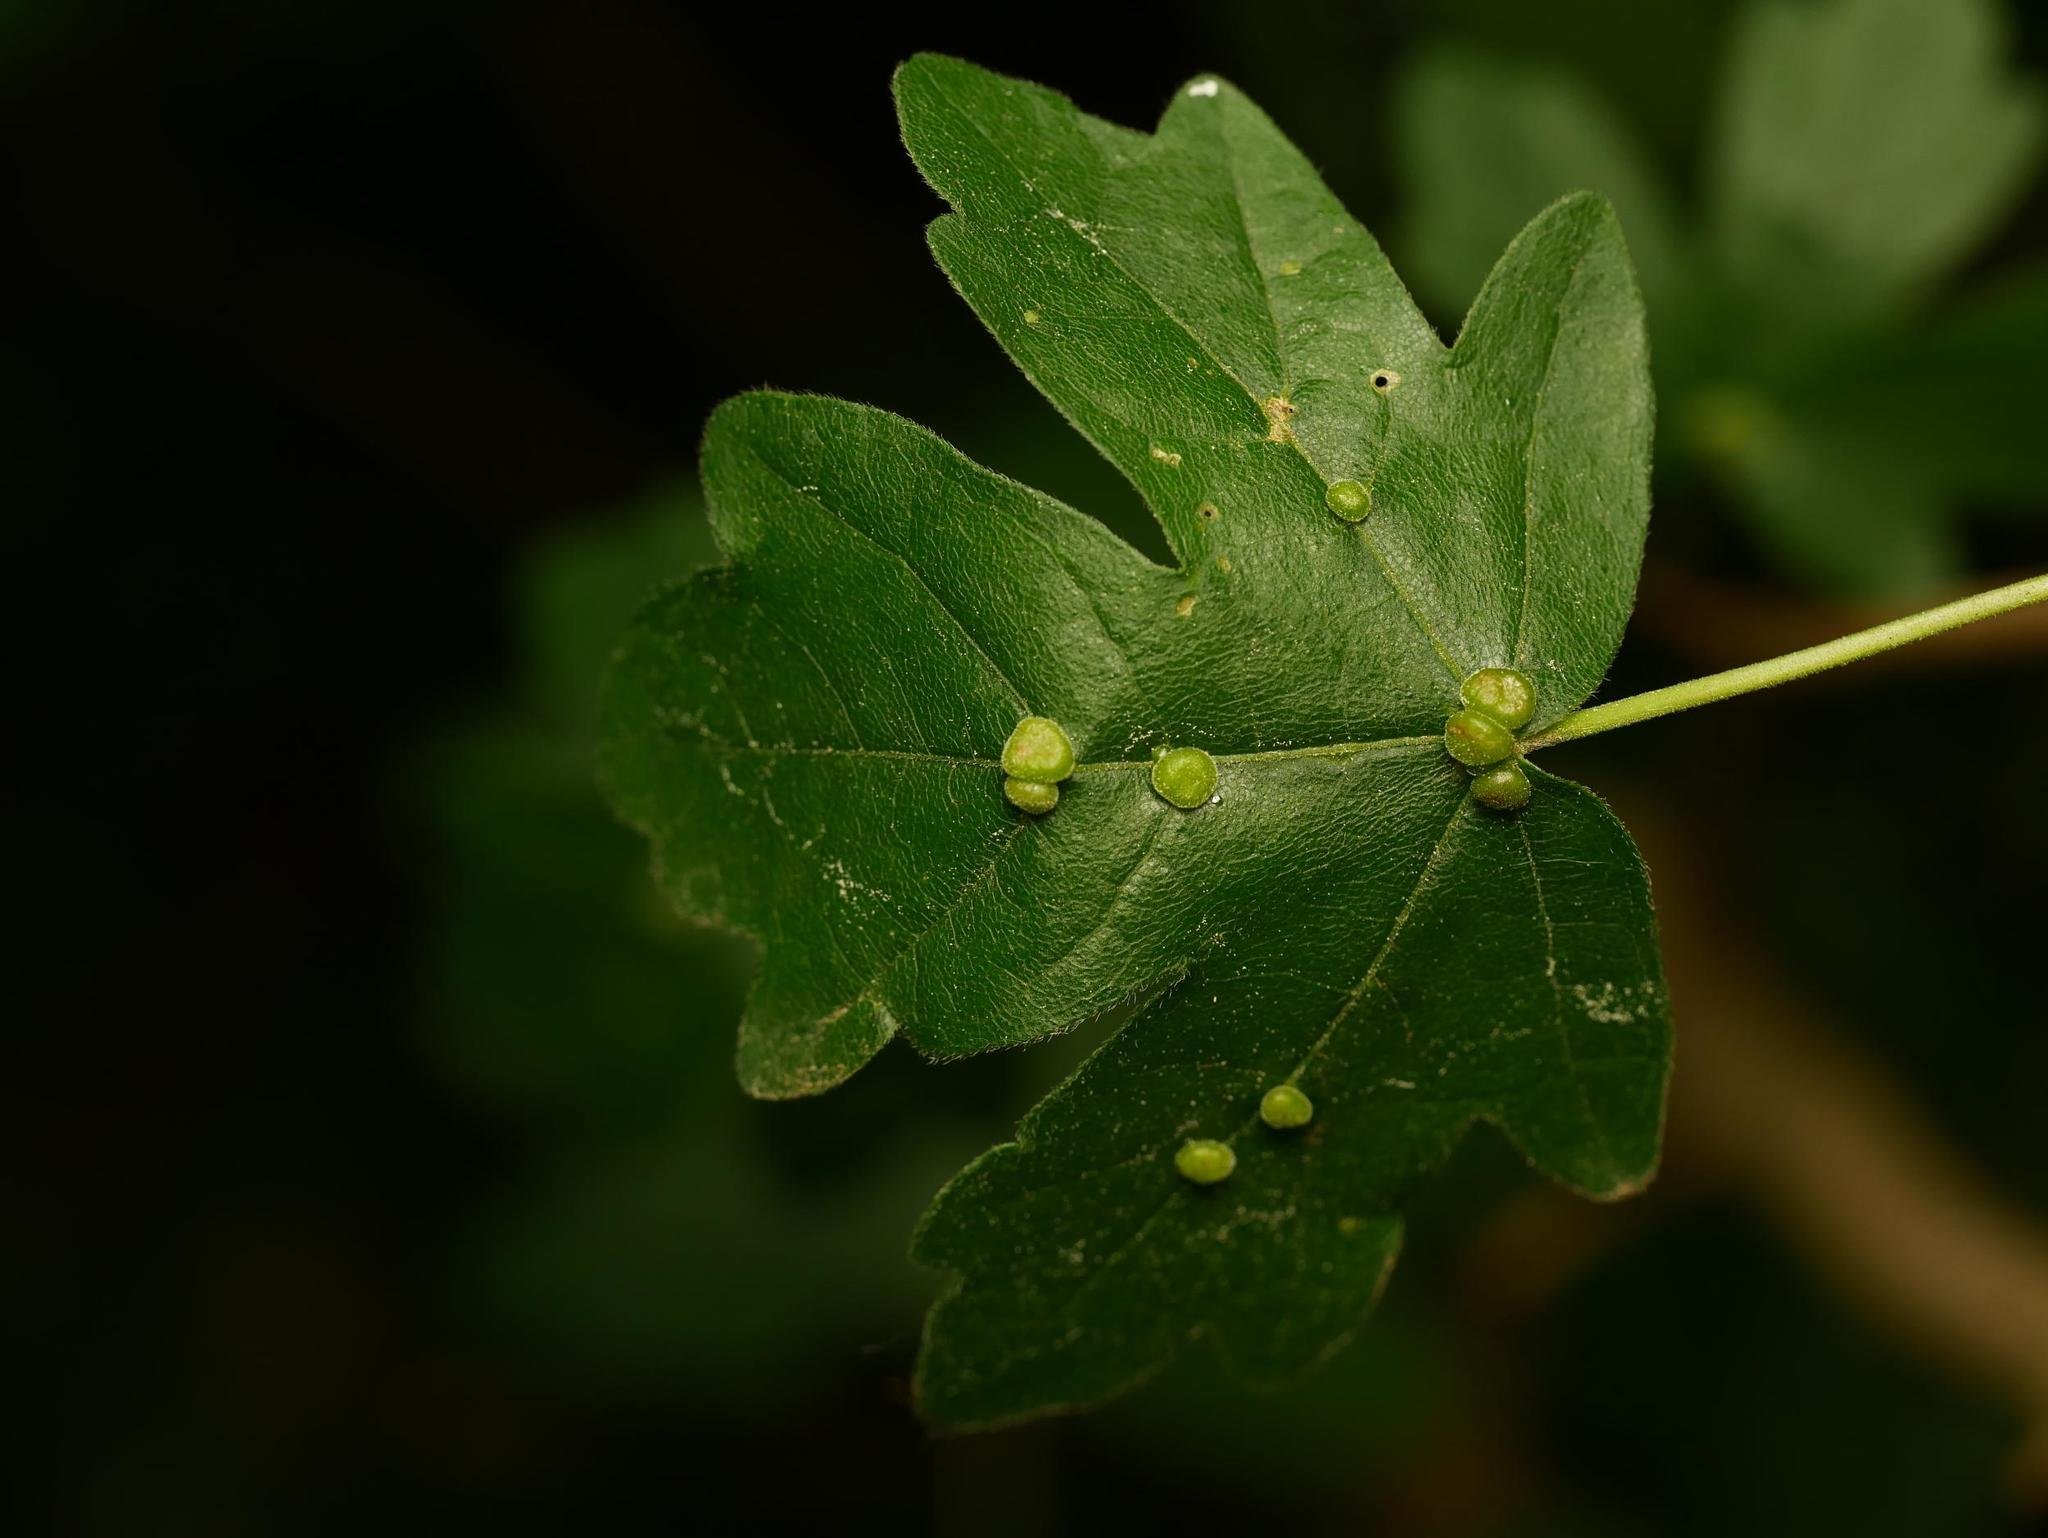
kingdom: Plantae
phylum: Tracheophyta
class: Magnoliopsida
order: Sapindales
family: Sapindaceae
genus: Acer
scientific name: Acer campestre
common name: Field maple
